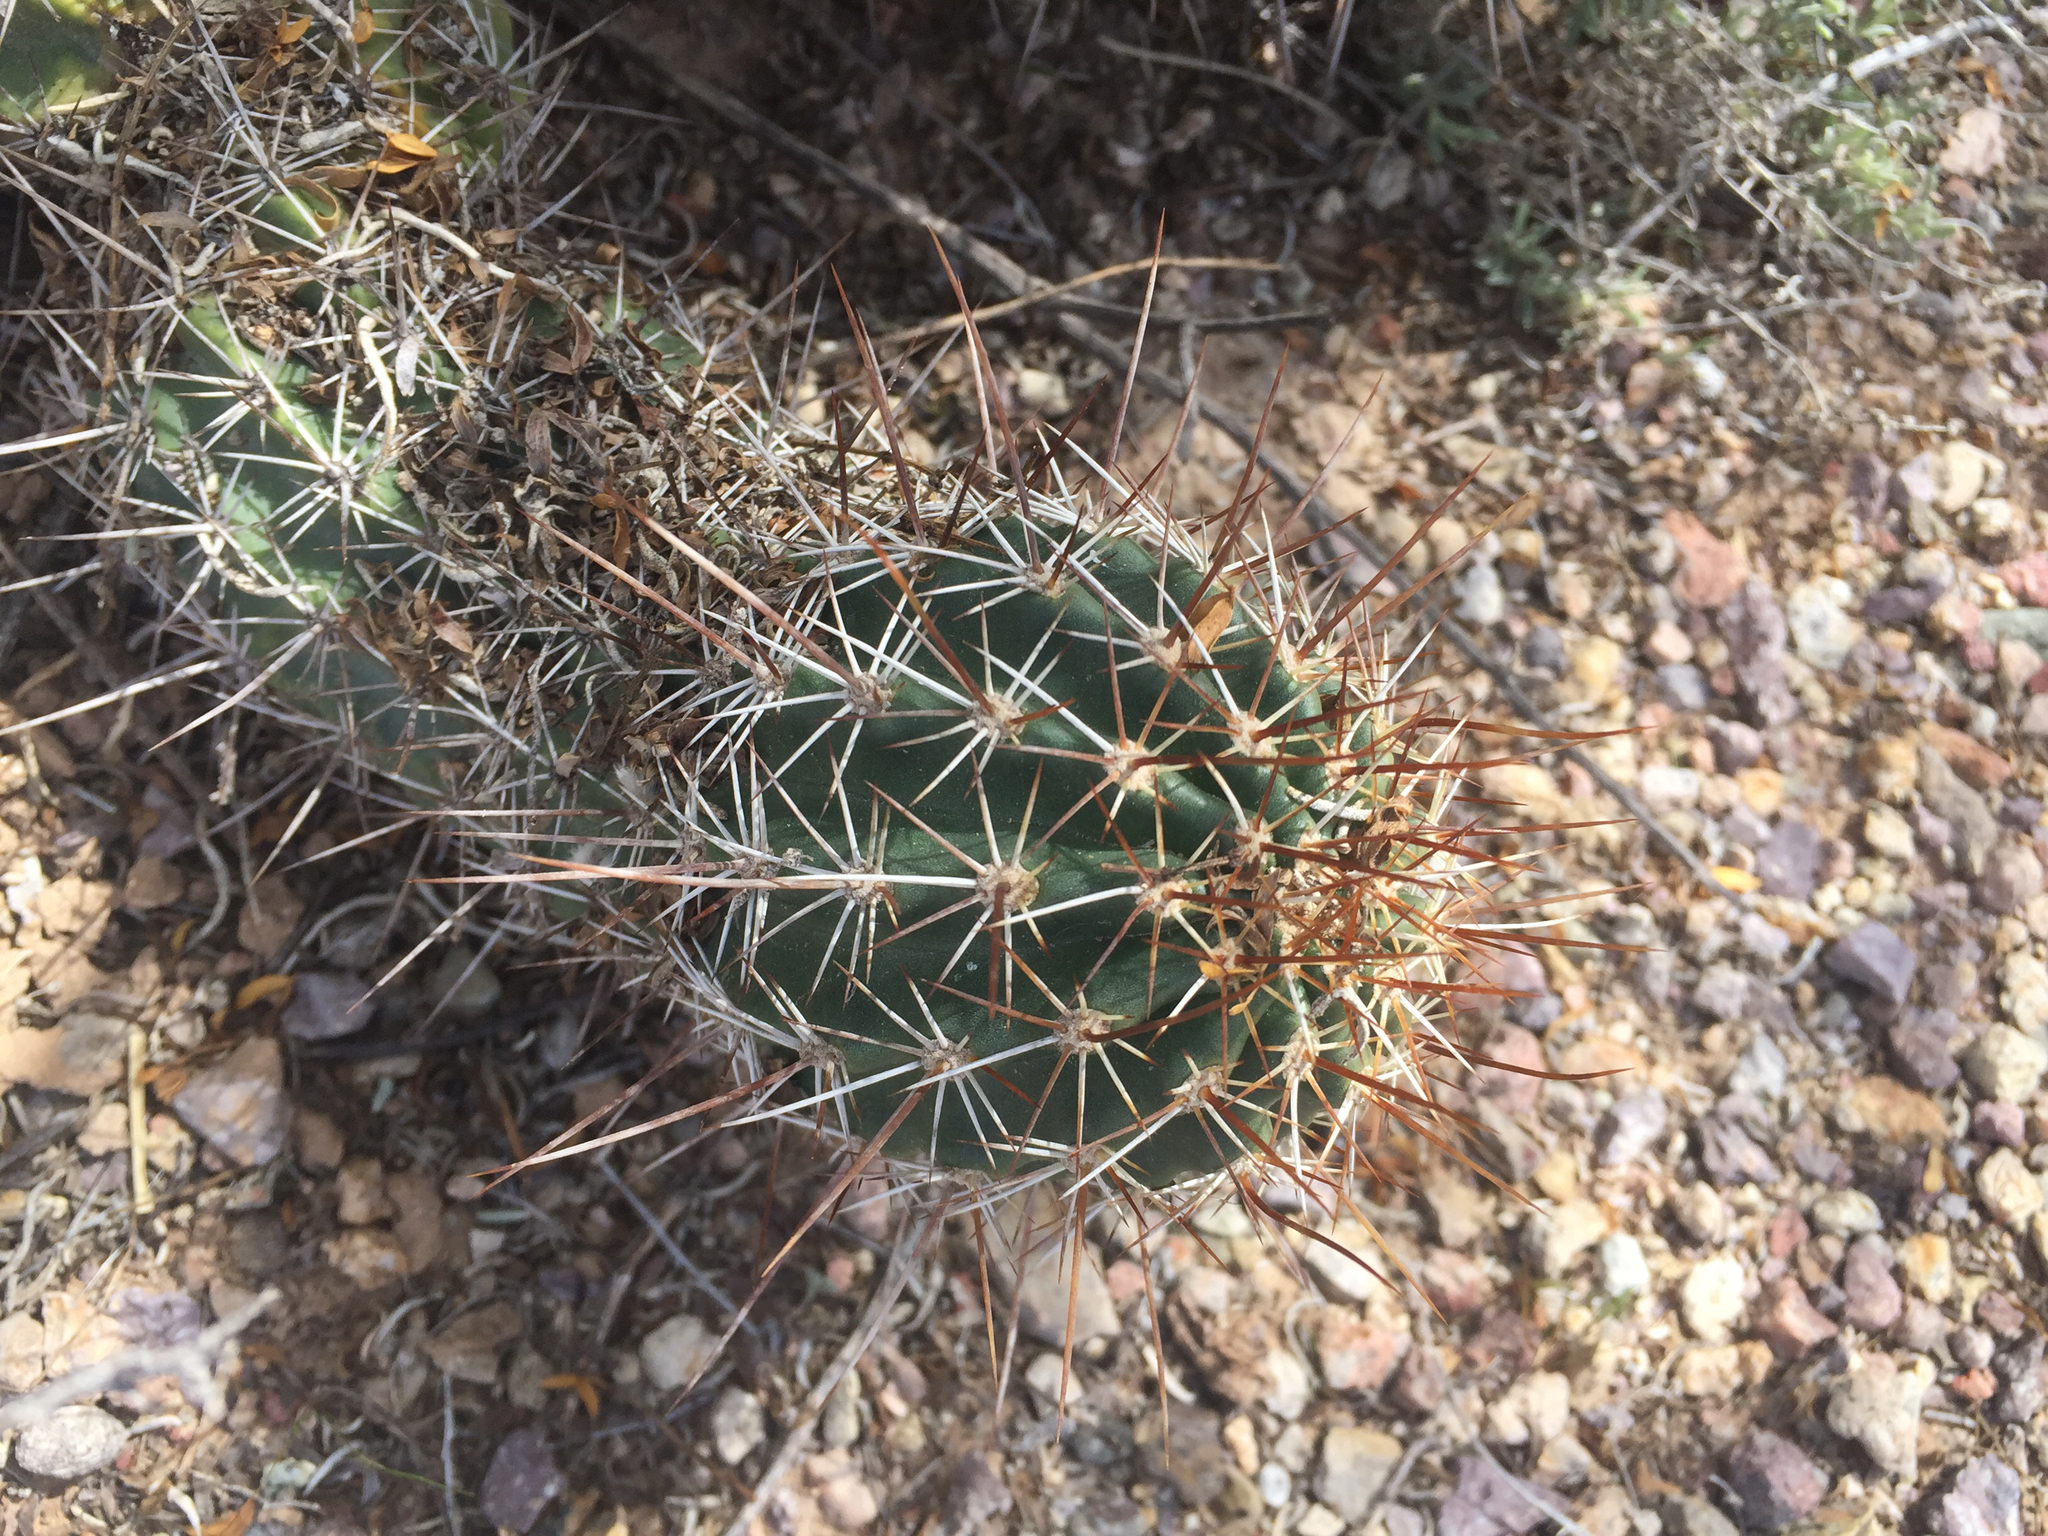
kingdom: Plantae
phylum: Tracheophyta
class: Magnoliopsida
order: Caryophyllales
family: Cactaceae
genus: Echinocereus
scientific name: Echinocereus fasciculatus
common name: Bundle hedgehog
